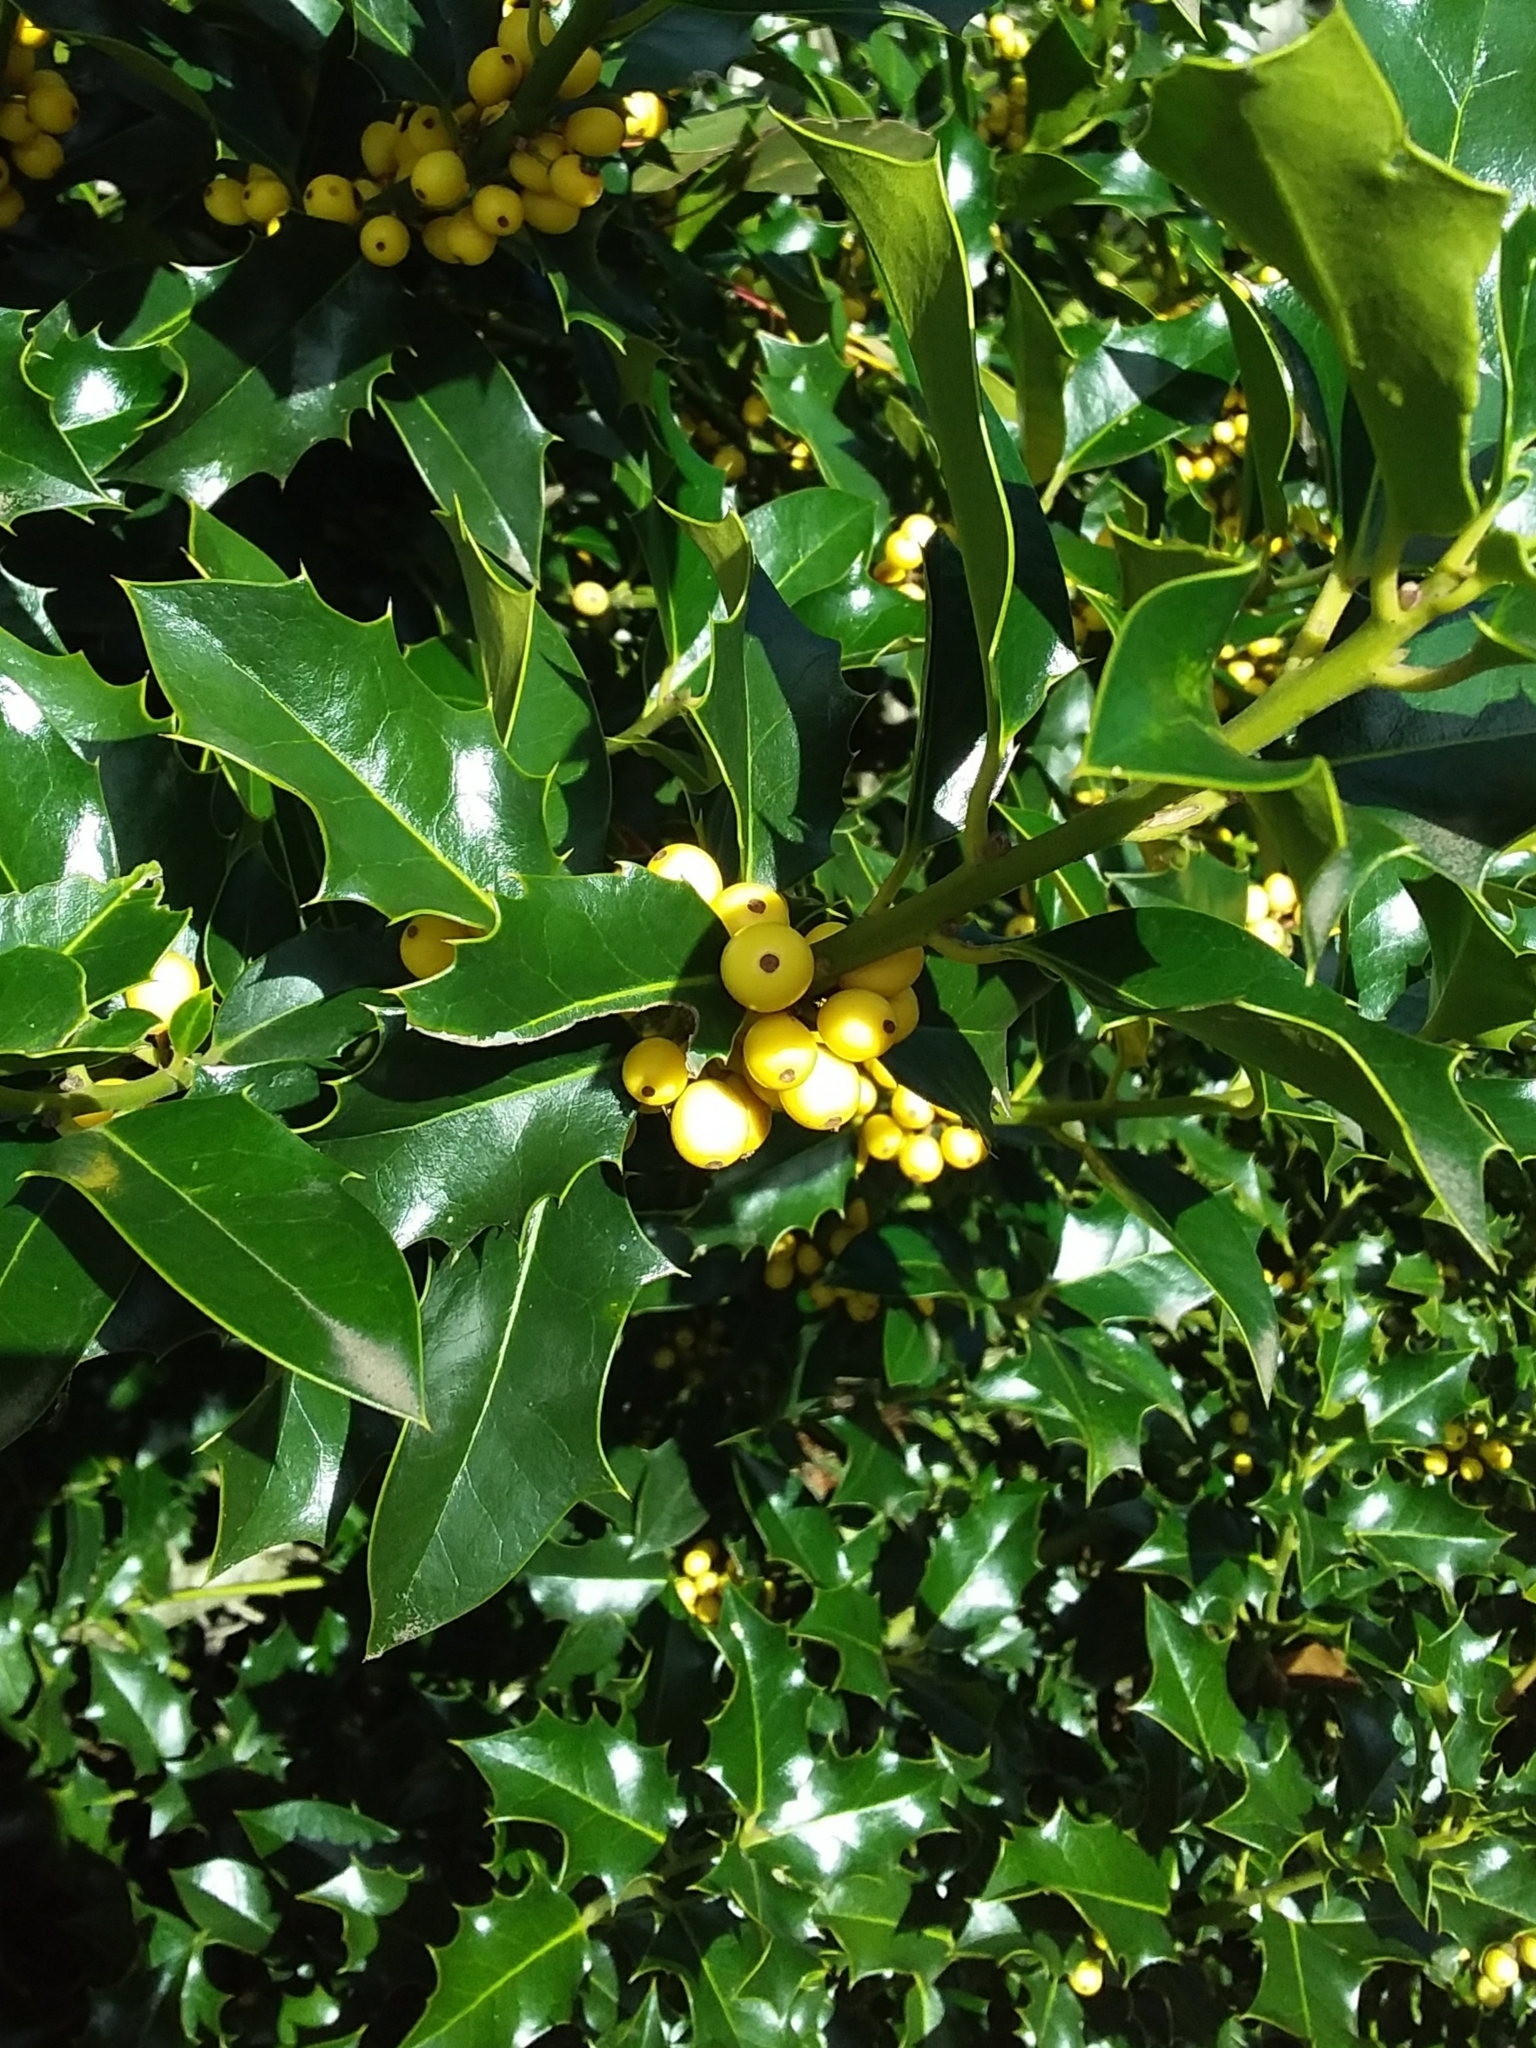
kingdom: Plantae
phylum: Tracheophyta
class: Magnoliopsida
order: Aquifoliales
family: Aquifoliaceae
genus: Ilex
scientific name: Ilex aquifolium
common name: English holly
